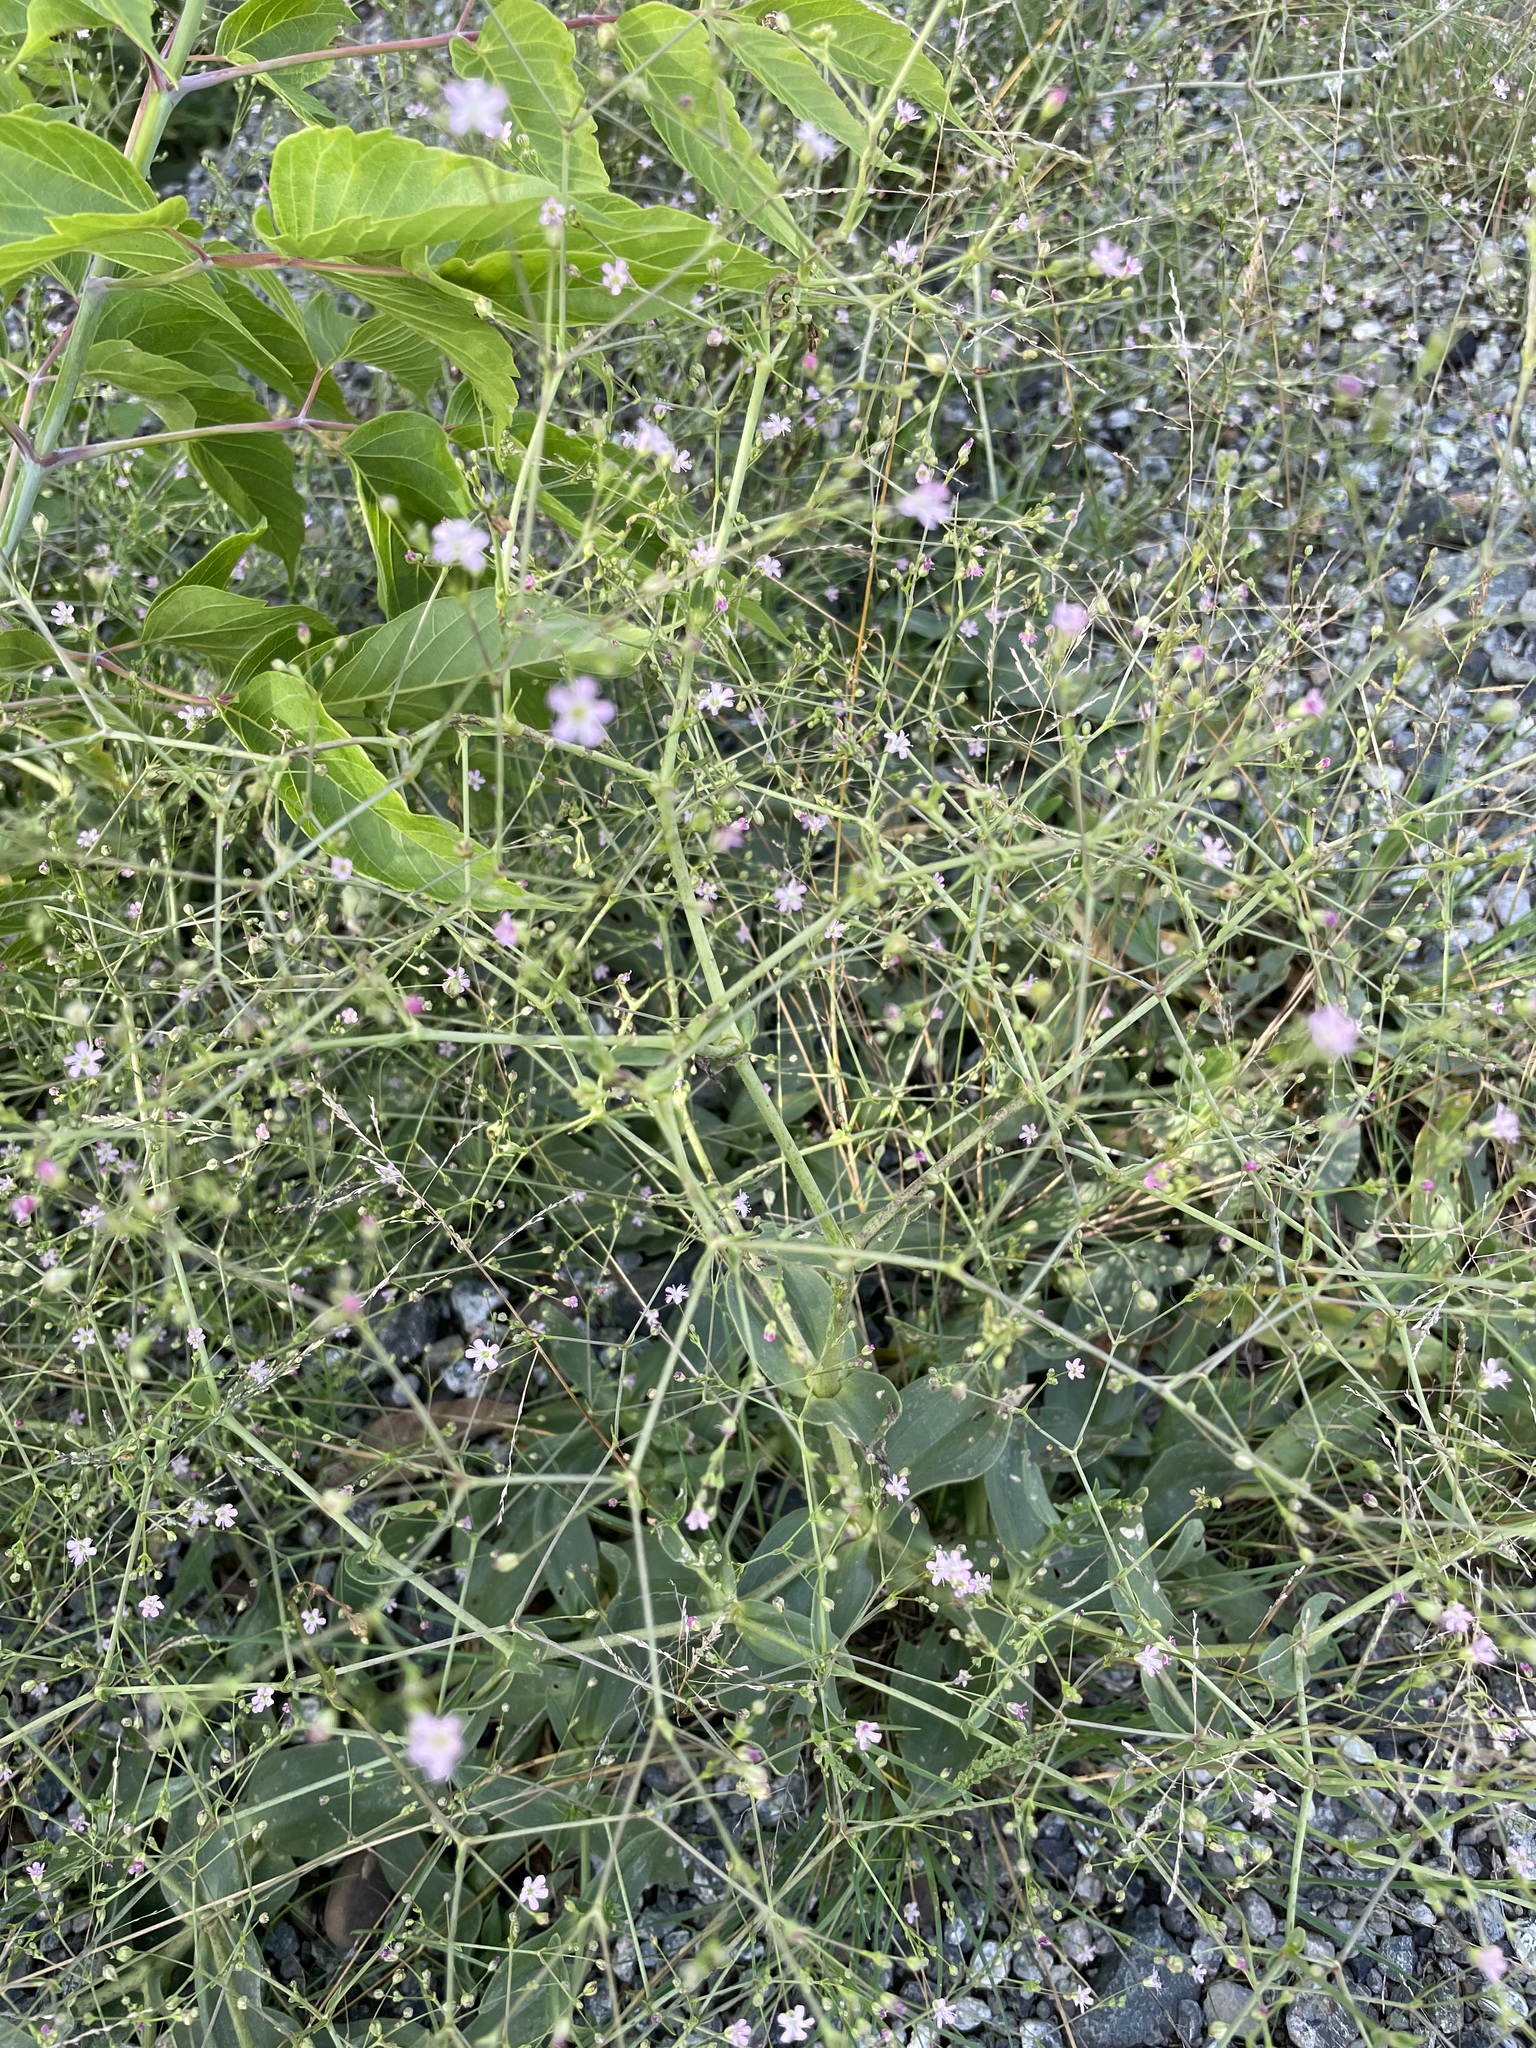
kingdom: Plantae
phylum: Tracheophyta
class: Magnoliopsida
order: Caryophyllales
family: Caryophyllaceae
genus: Gypsophila
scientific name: Gypsophila perfoliata
